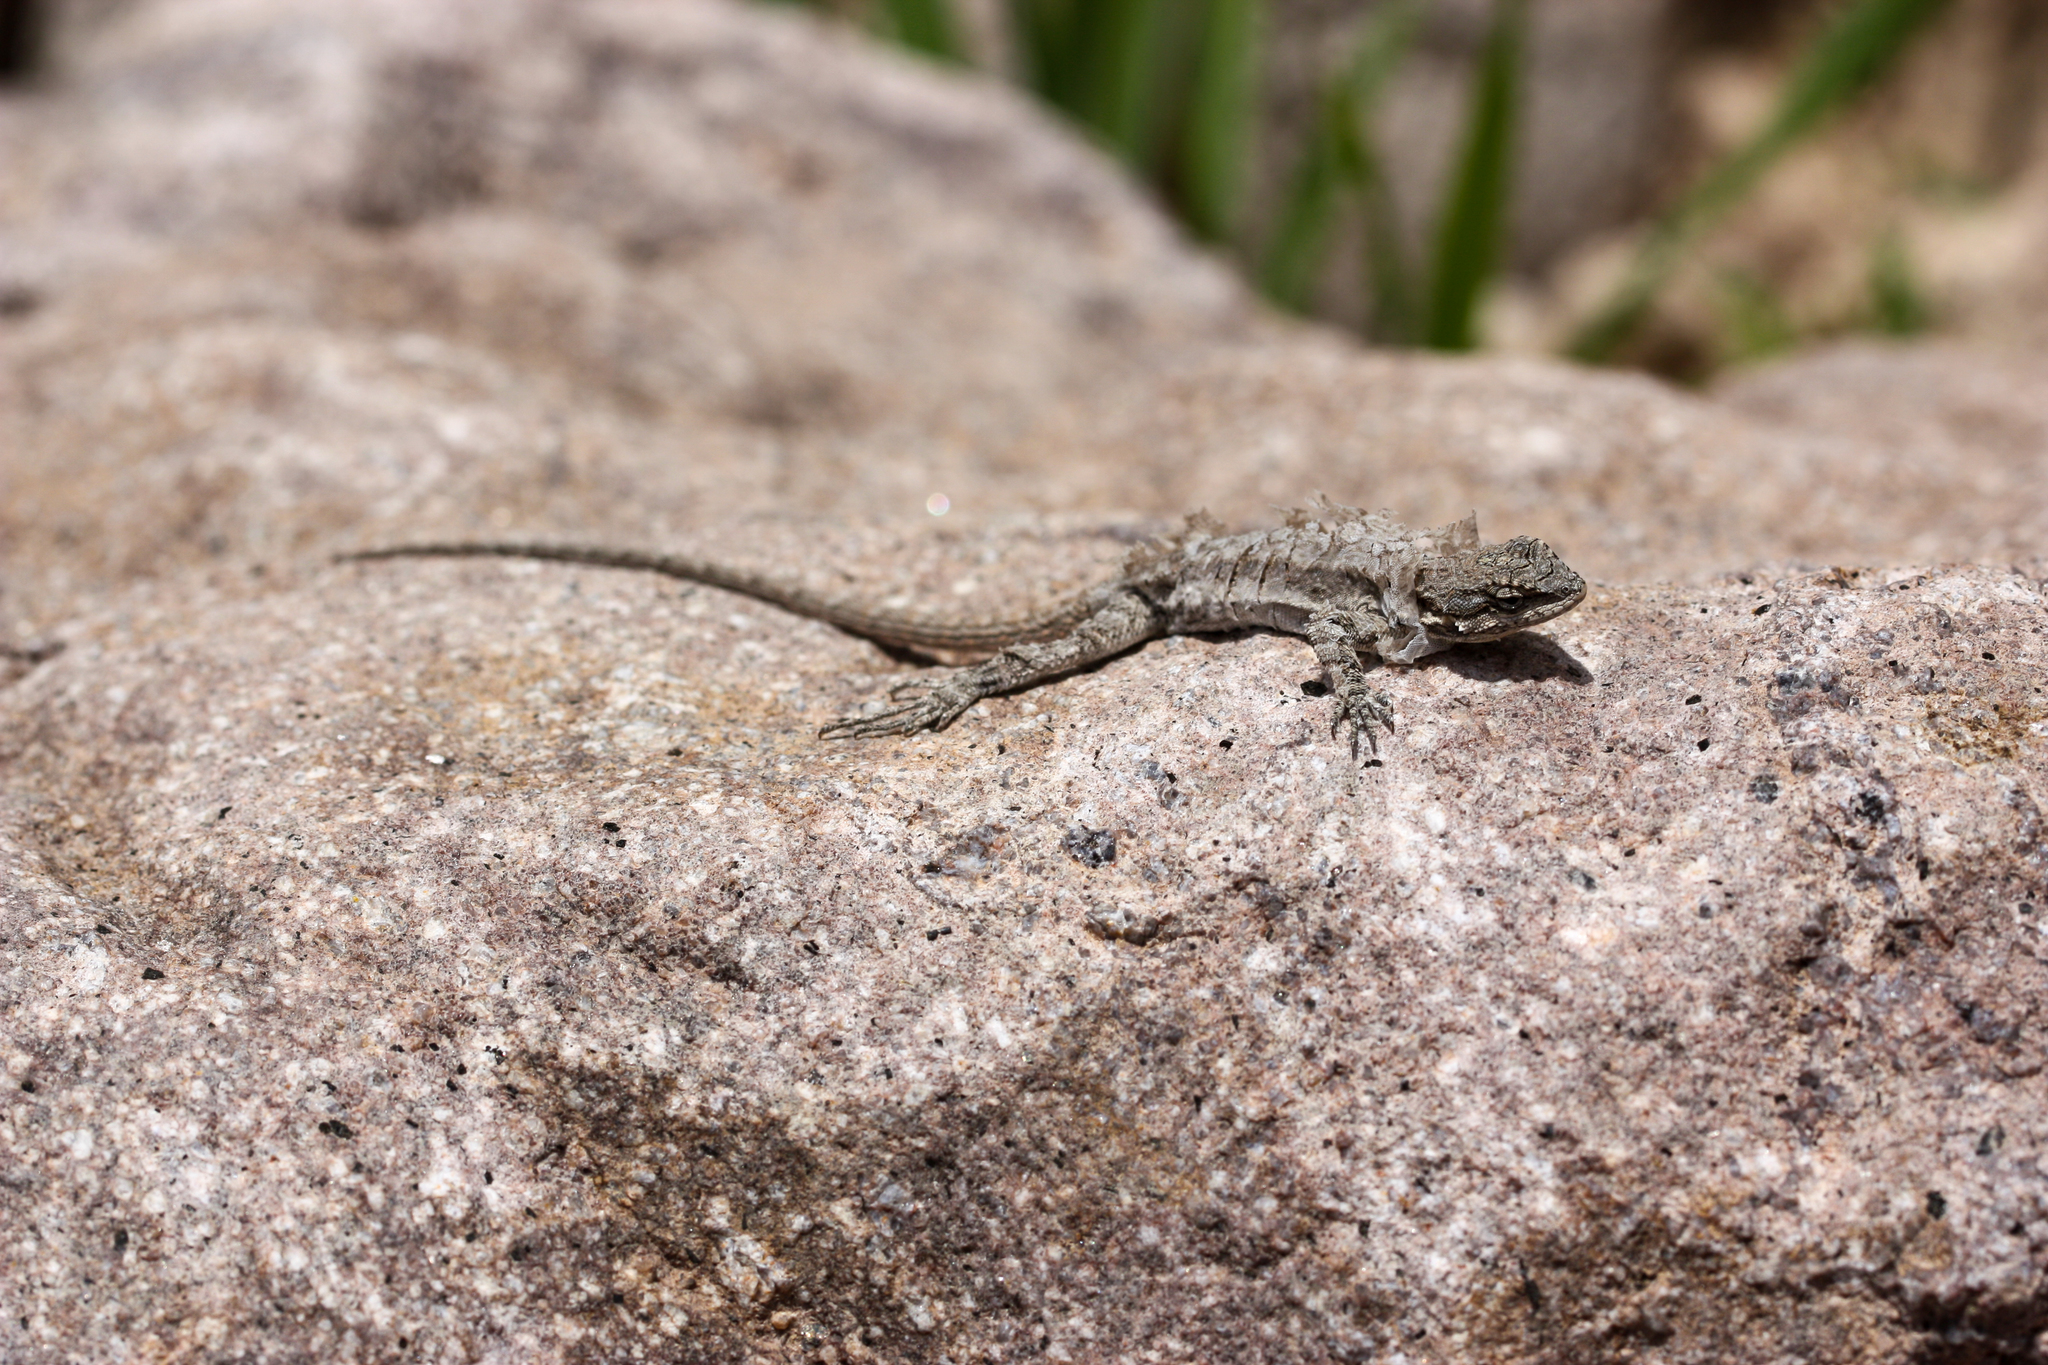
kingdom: Animalia
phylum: Chordata
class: Squamata
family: Phrynosomatidae
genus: Urosaurus
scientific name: Urosaurus ornatus
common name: Ornate tree lizard
